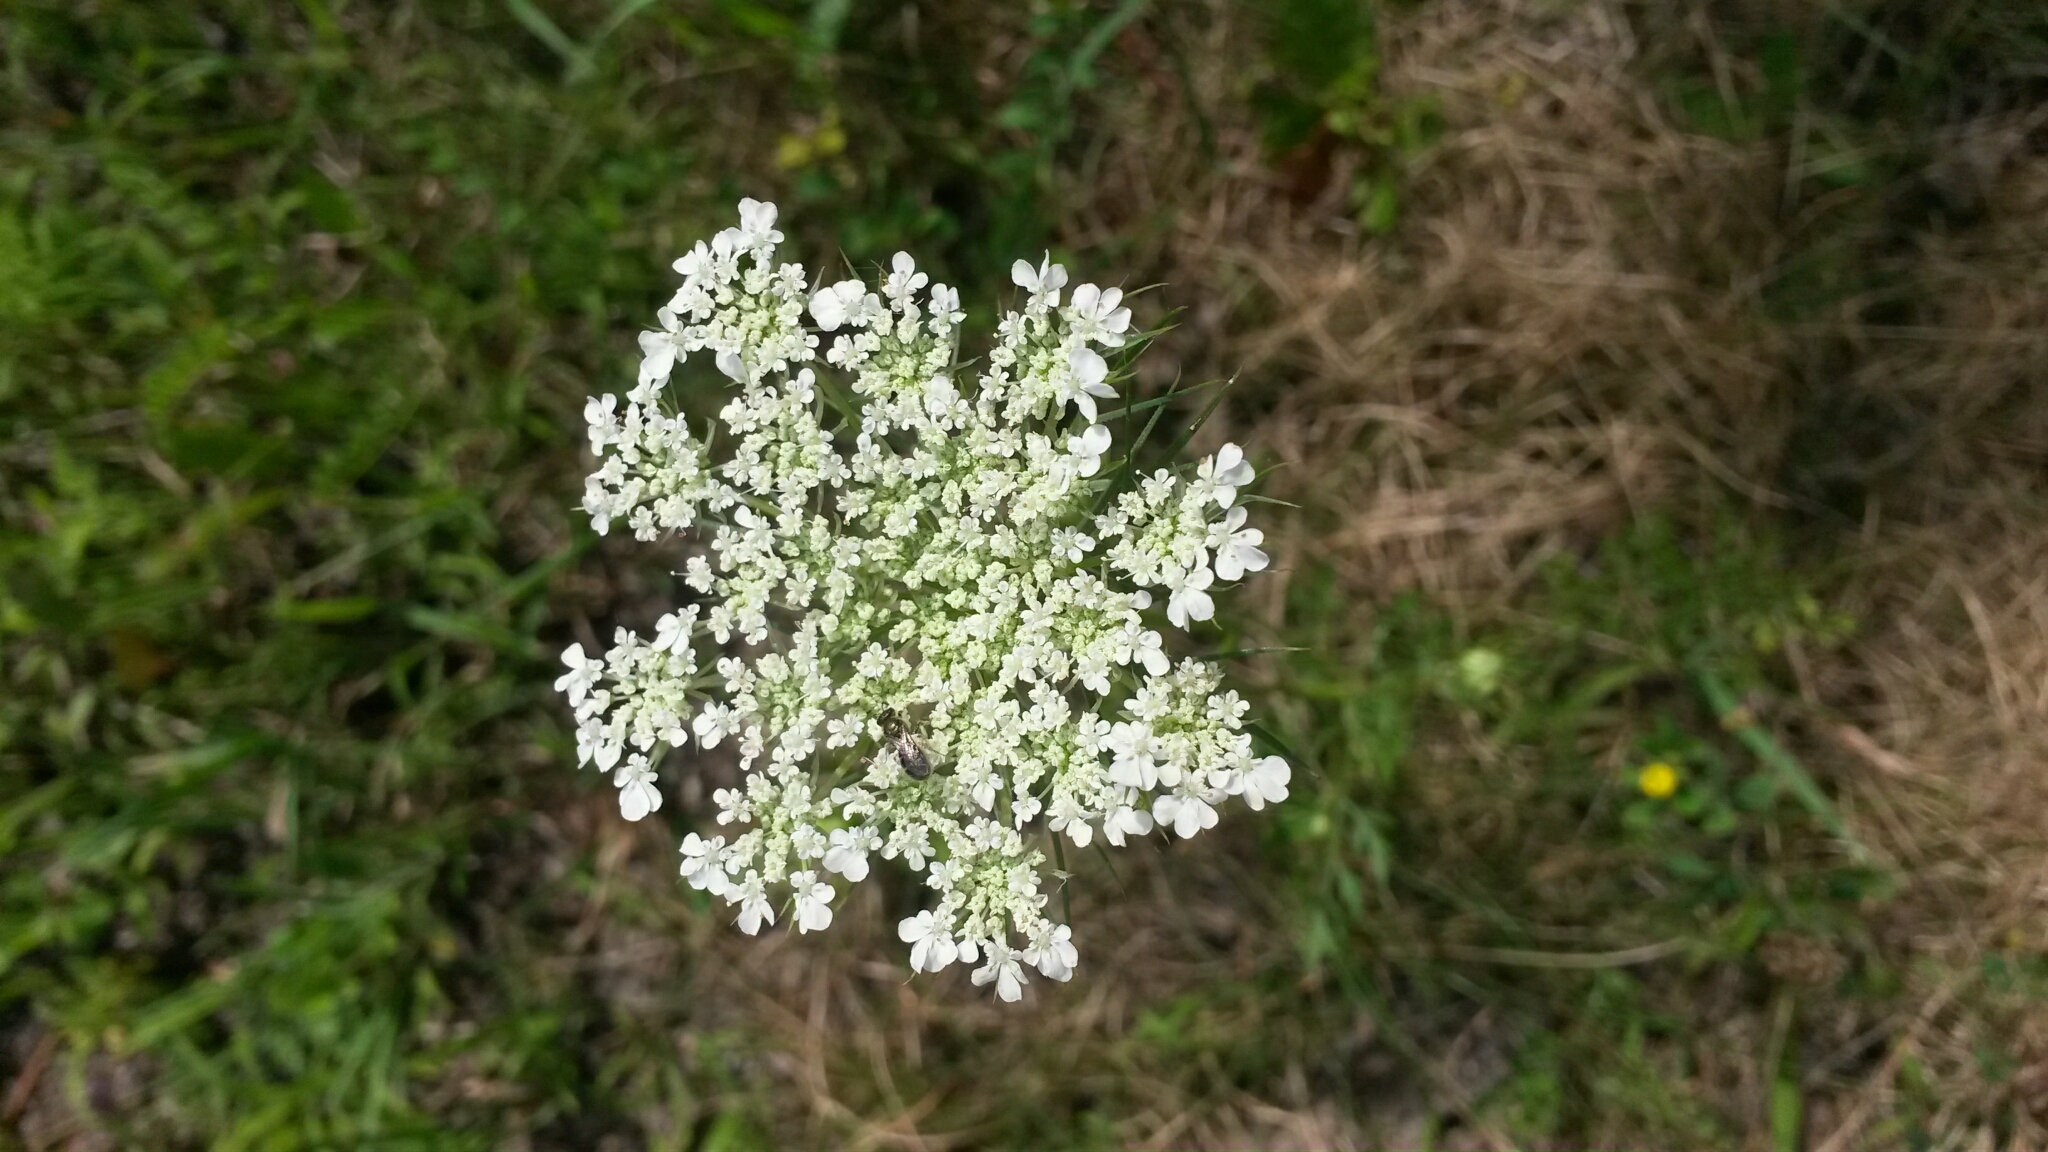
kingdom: Plantae
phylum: Tracheophyta
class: Magnoliopsida
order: Apiales
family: Apiaceae
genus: Daucus
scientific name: Daucus carota
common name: Wild carrot
